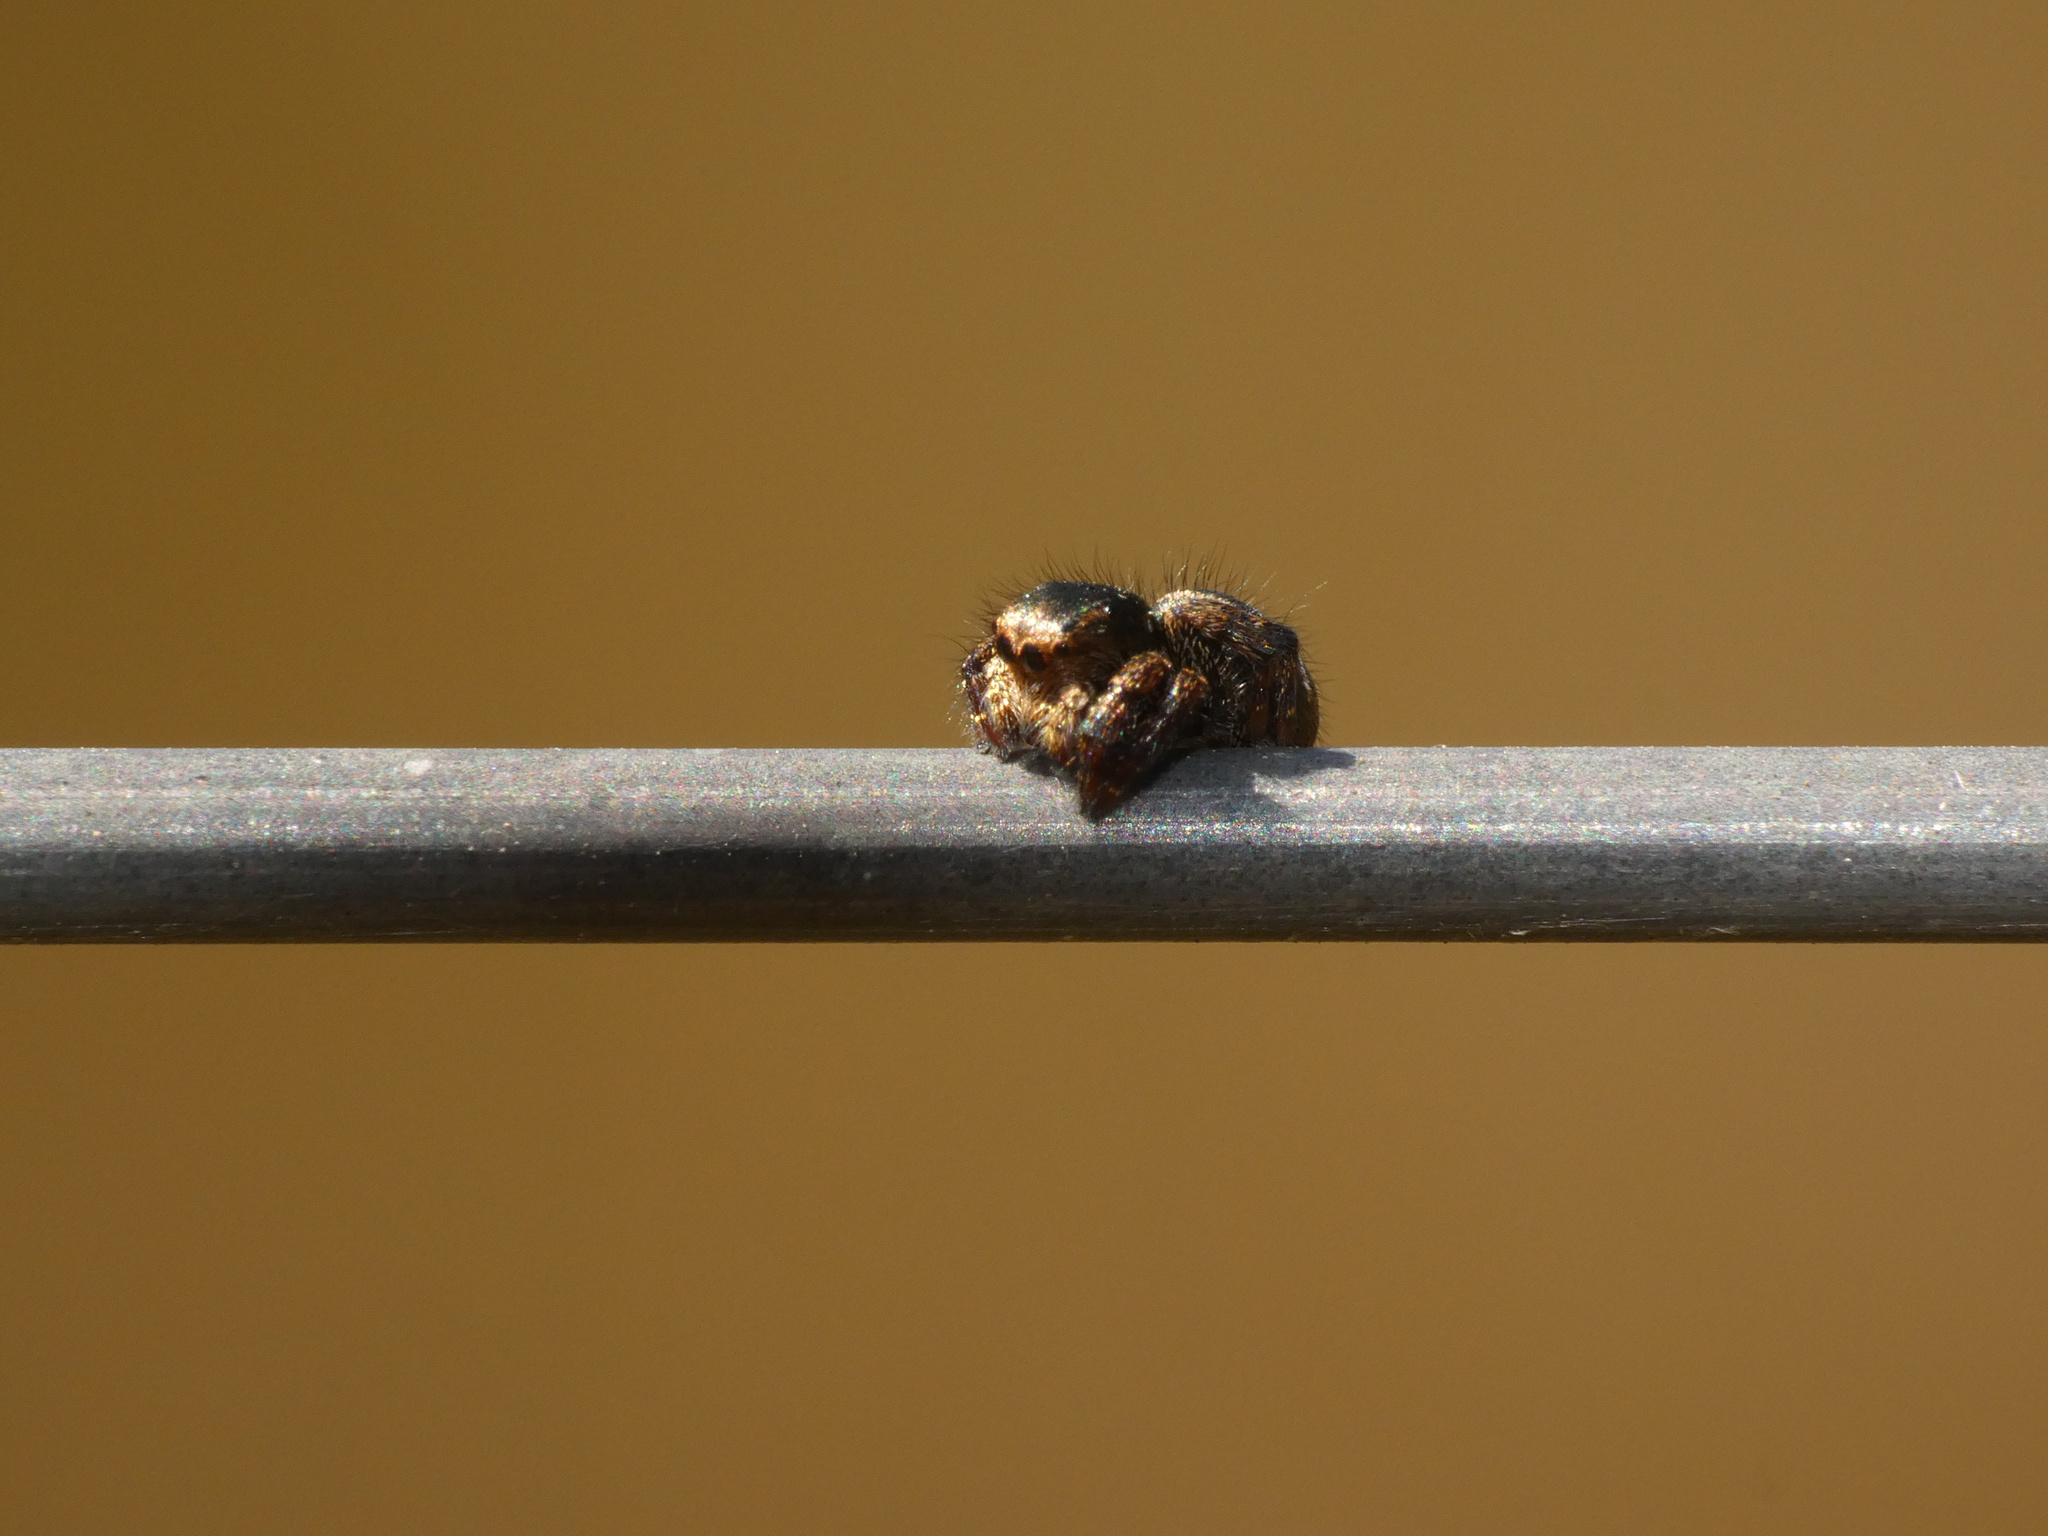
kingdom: Animalia
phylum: Arthropoda
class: Arachnida
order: Araneae
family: Salticidae
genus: Baryphas
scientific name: Baryphas ahenus
